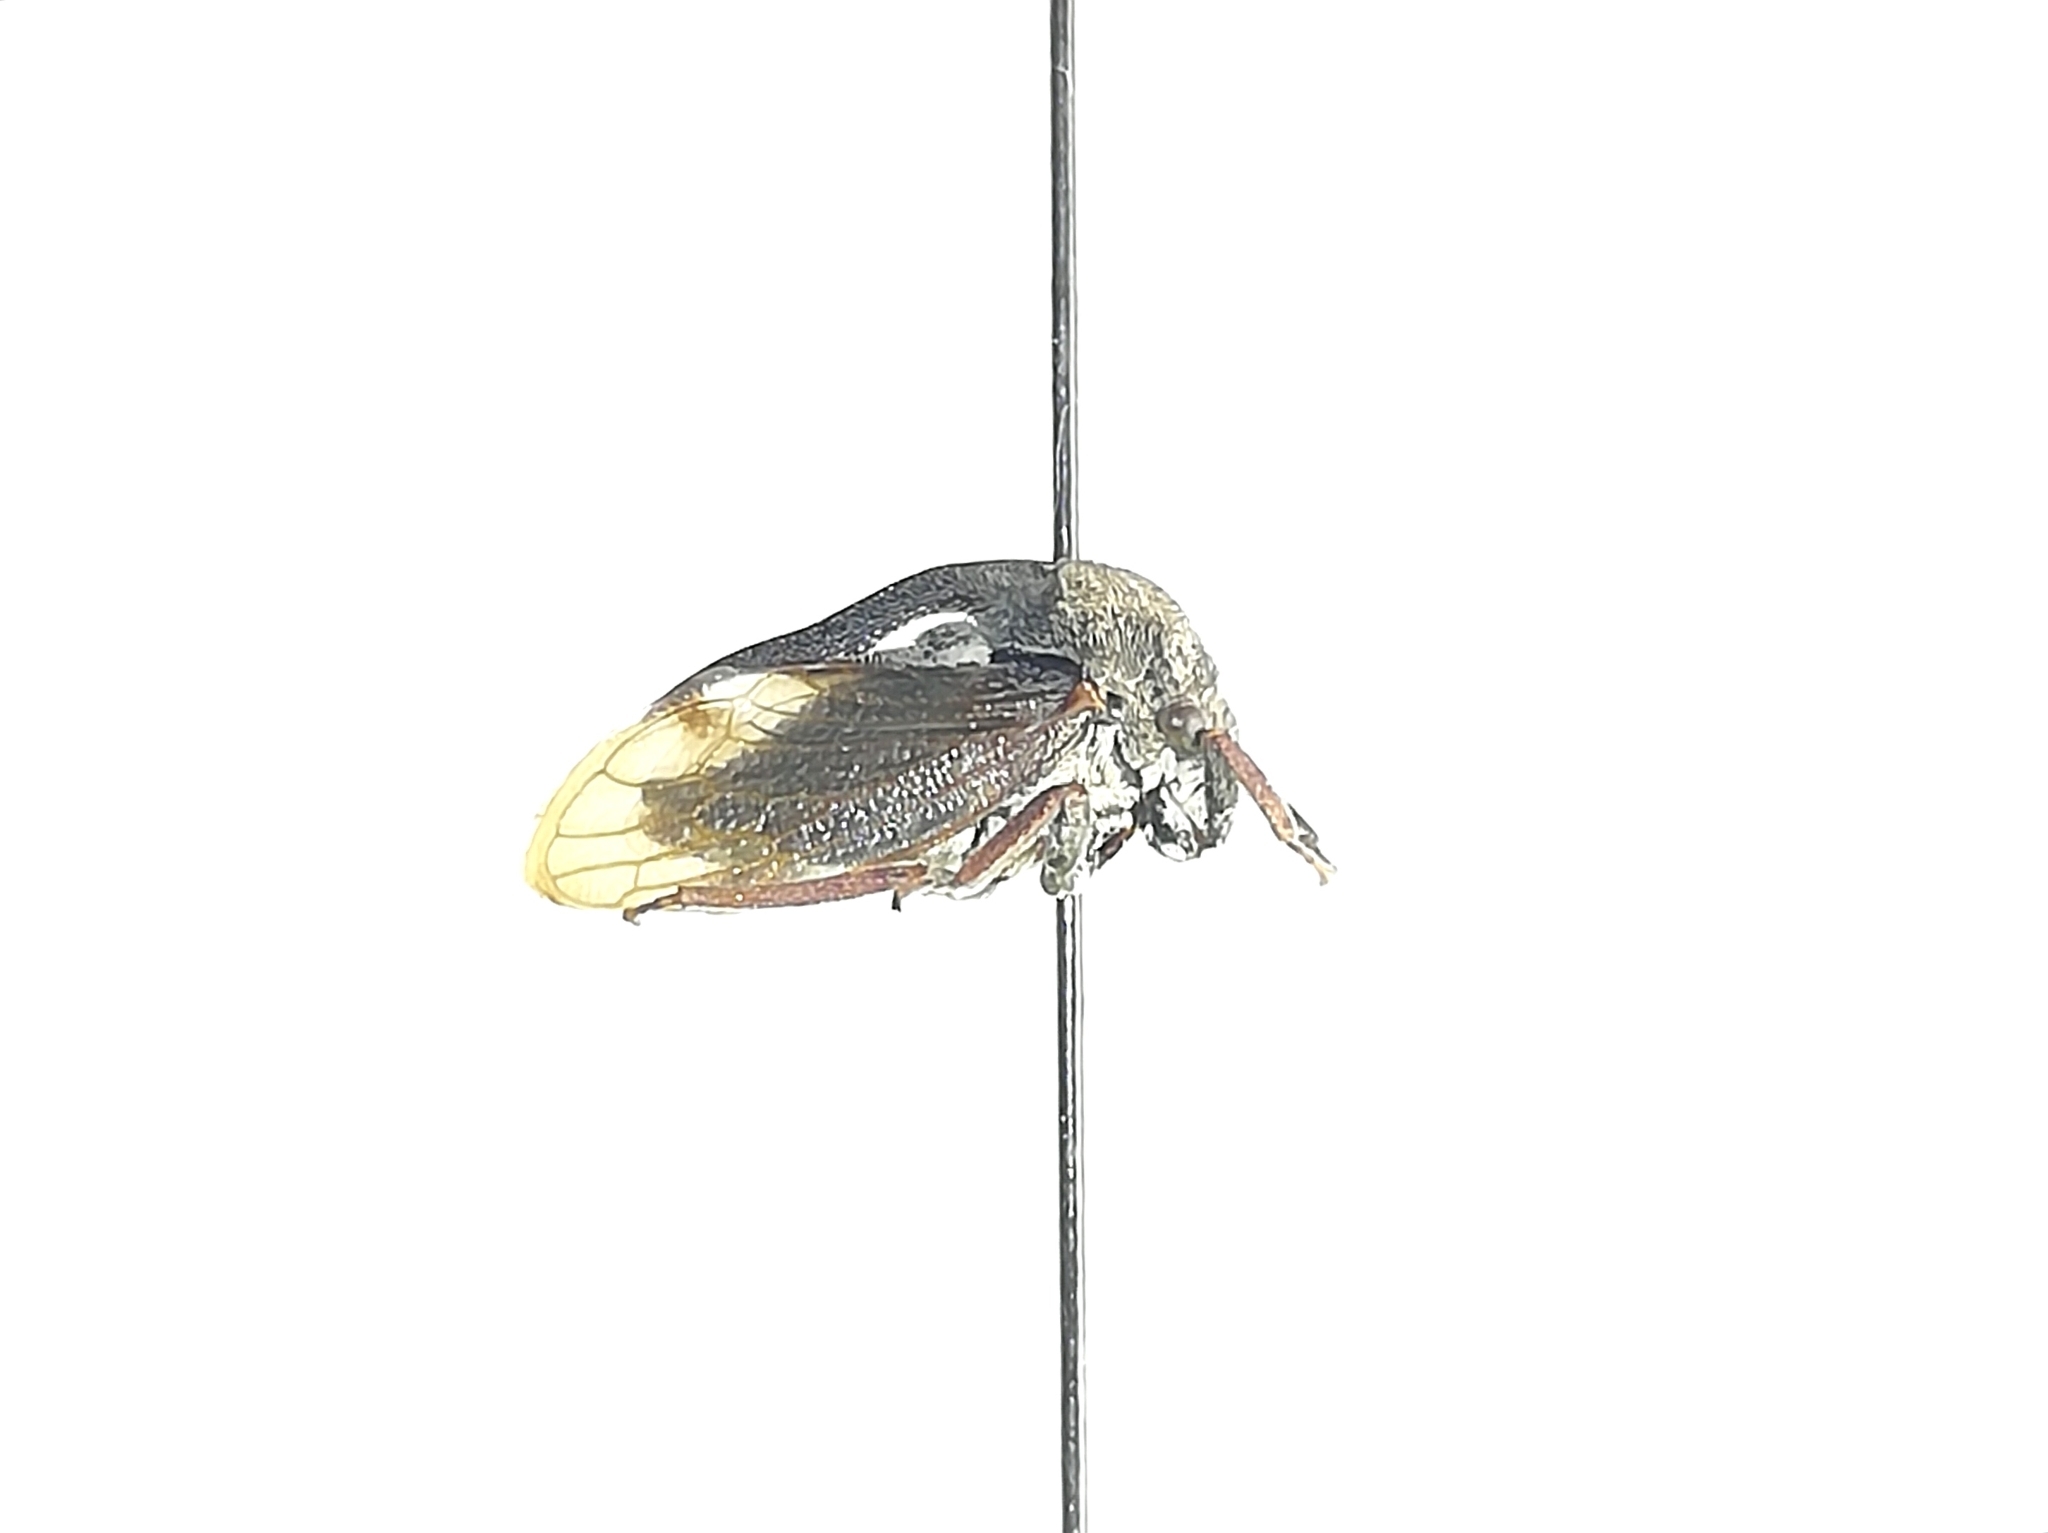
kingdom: Animalia
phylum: Arthropoda
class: Insecta
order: Hemiptera
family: Membracidae
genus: Centrotus
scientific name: Centrotus cornuta
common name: Treehopper
